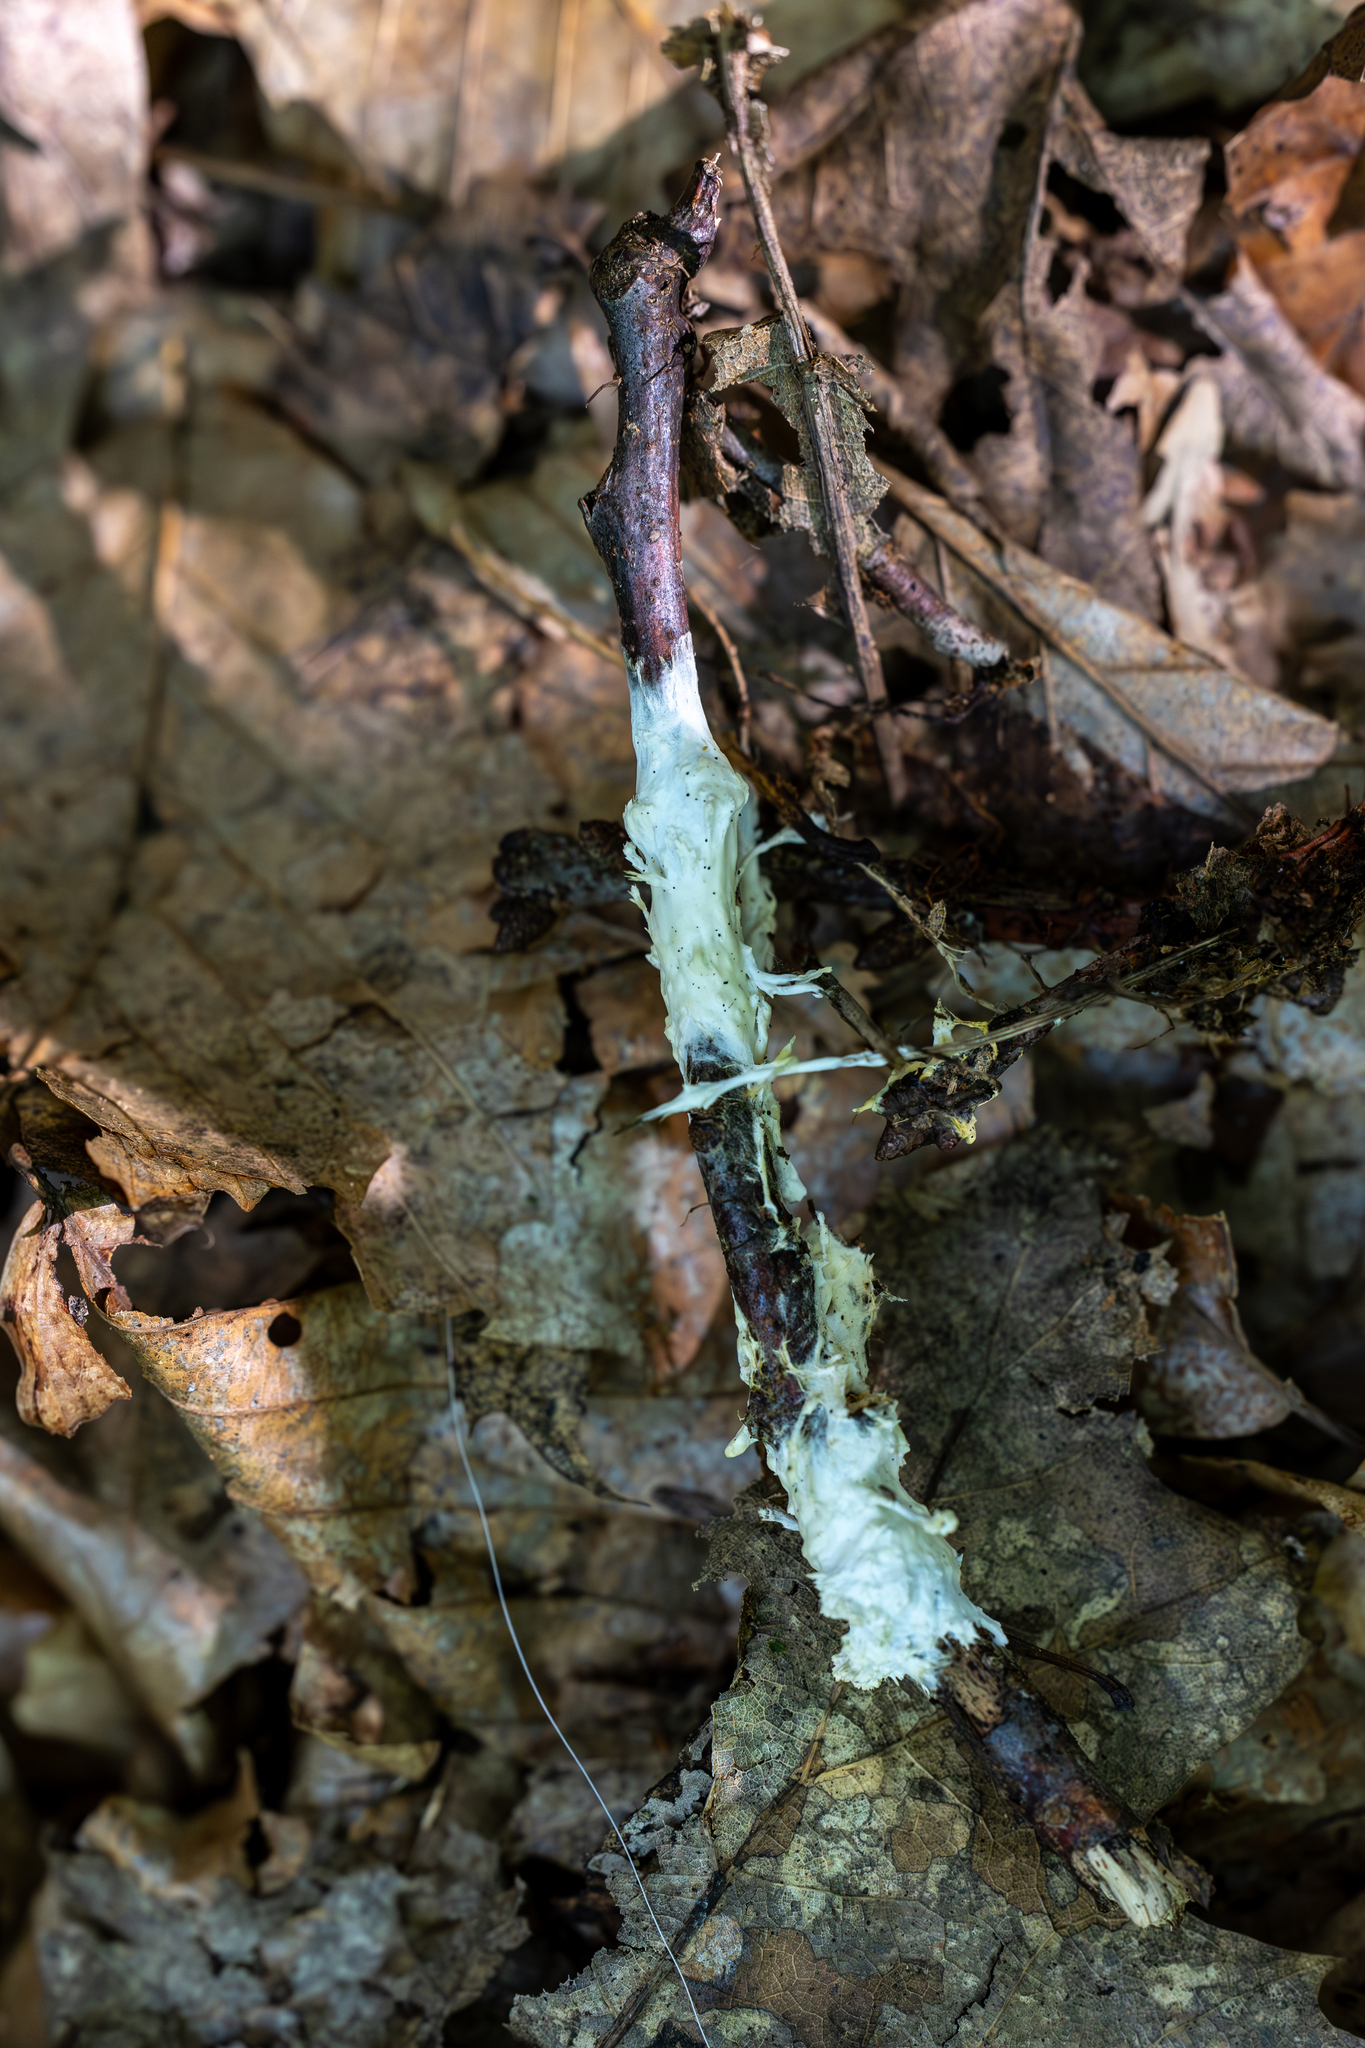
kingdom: Fungi
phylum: Basidiomycota
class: Agaricomycetes
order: Sebacinales
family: Sebacinaceae
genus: Sebacina
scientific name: Sebacina incrustans
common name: Enveloping crust
